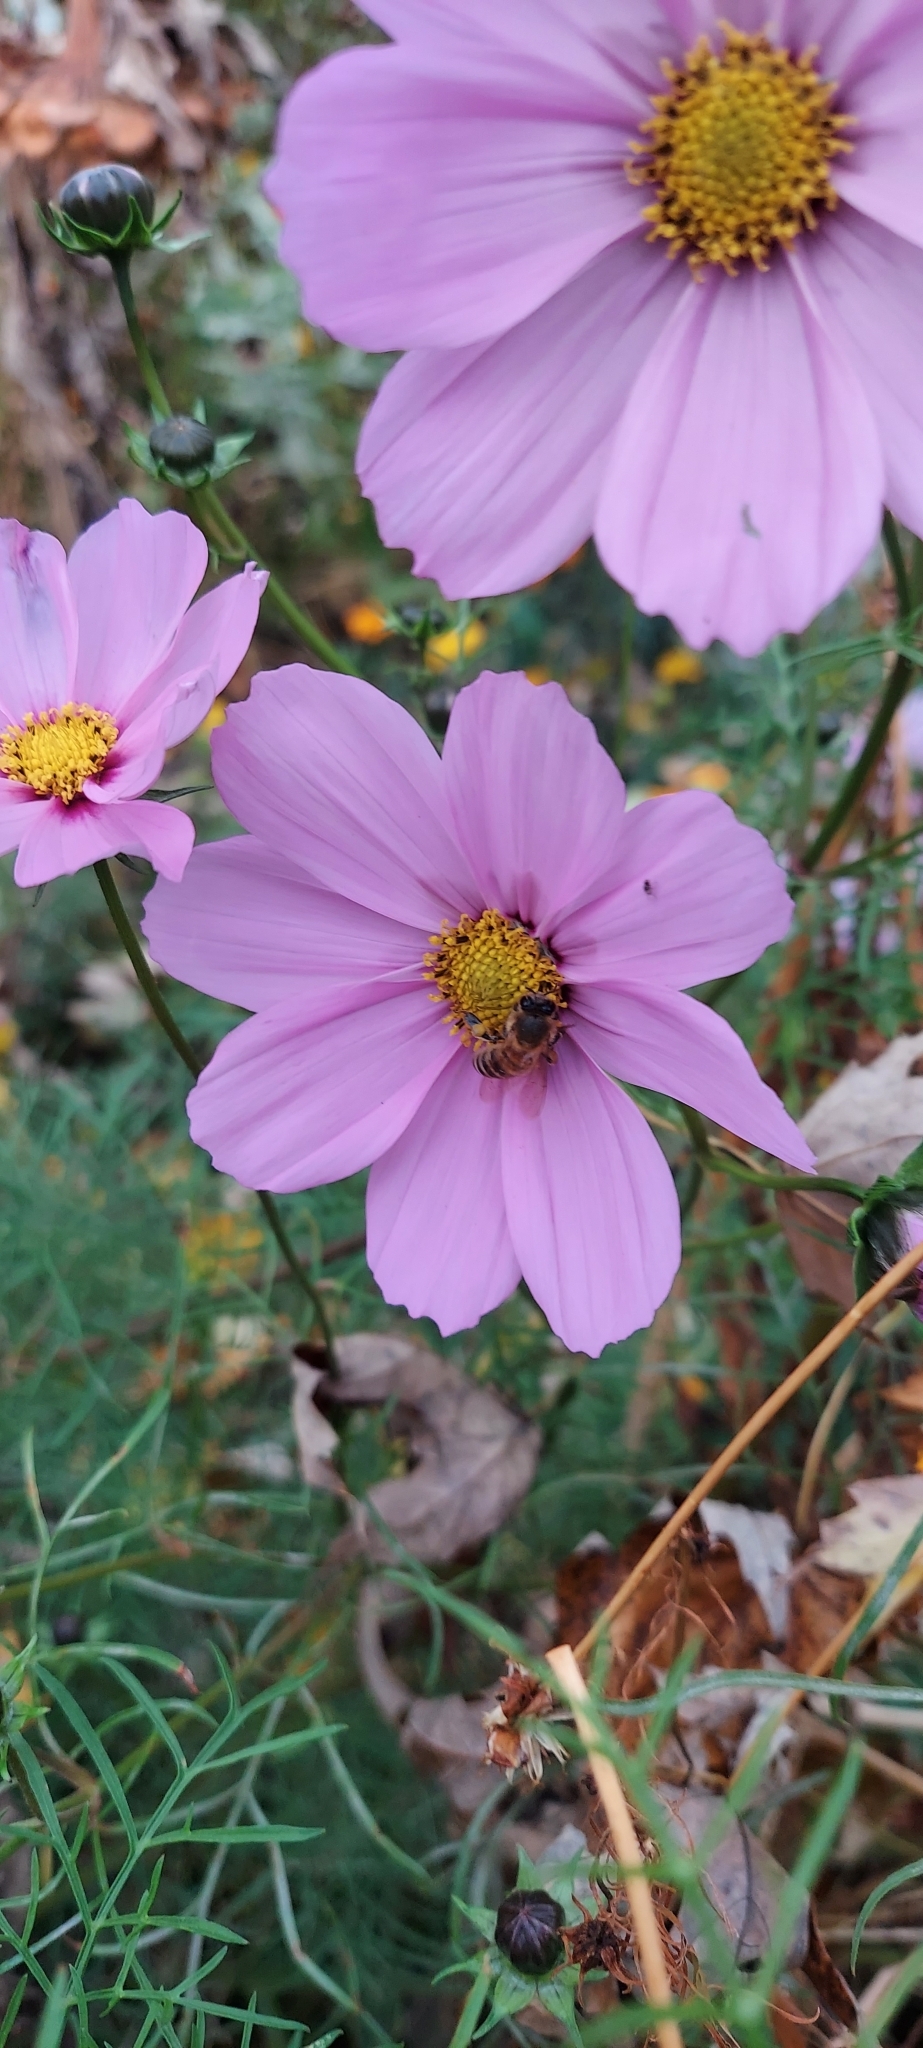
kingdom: Animalia
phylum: Arthropoda
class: Insecta
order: Hymenoptera
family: Apidae
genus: Apis
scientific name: Apis mellifera
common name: Honey bee
